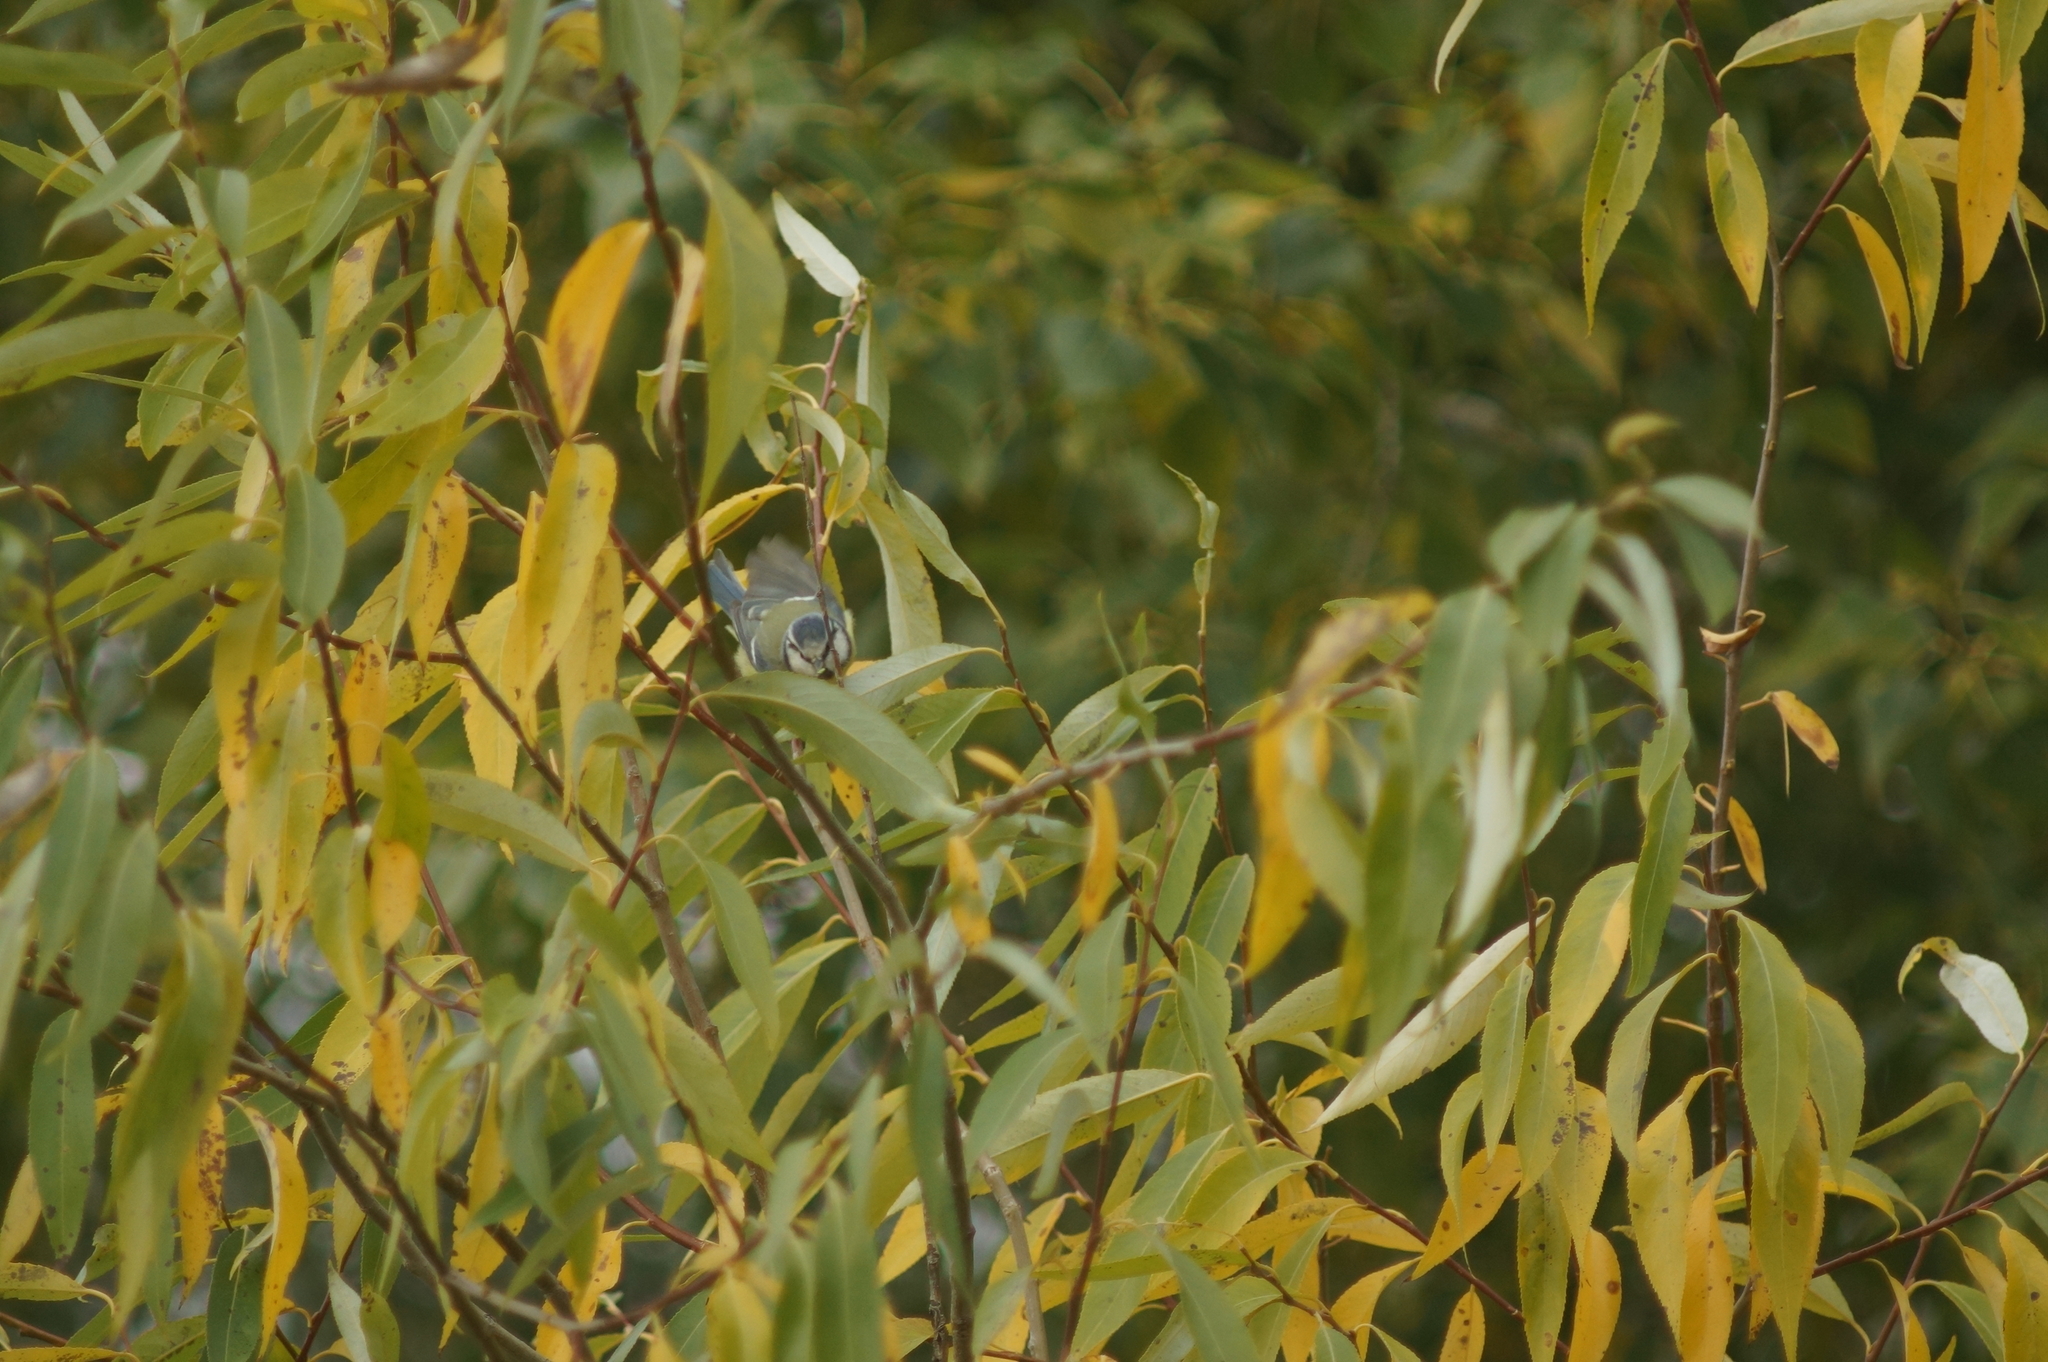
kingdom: Animalia
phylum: Chordata
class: Aves
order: Passeriformes
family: Paridae
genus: Cyanistes
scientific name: Cyanistes caeruleus
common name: Eurasian blue tit
